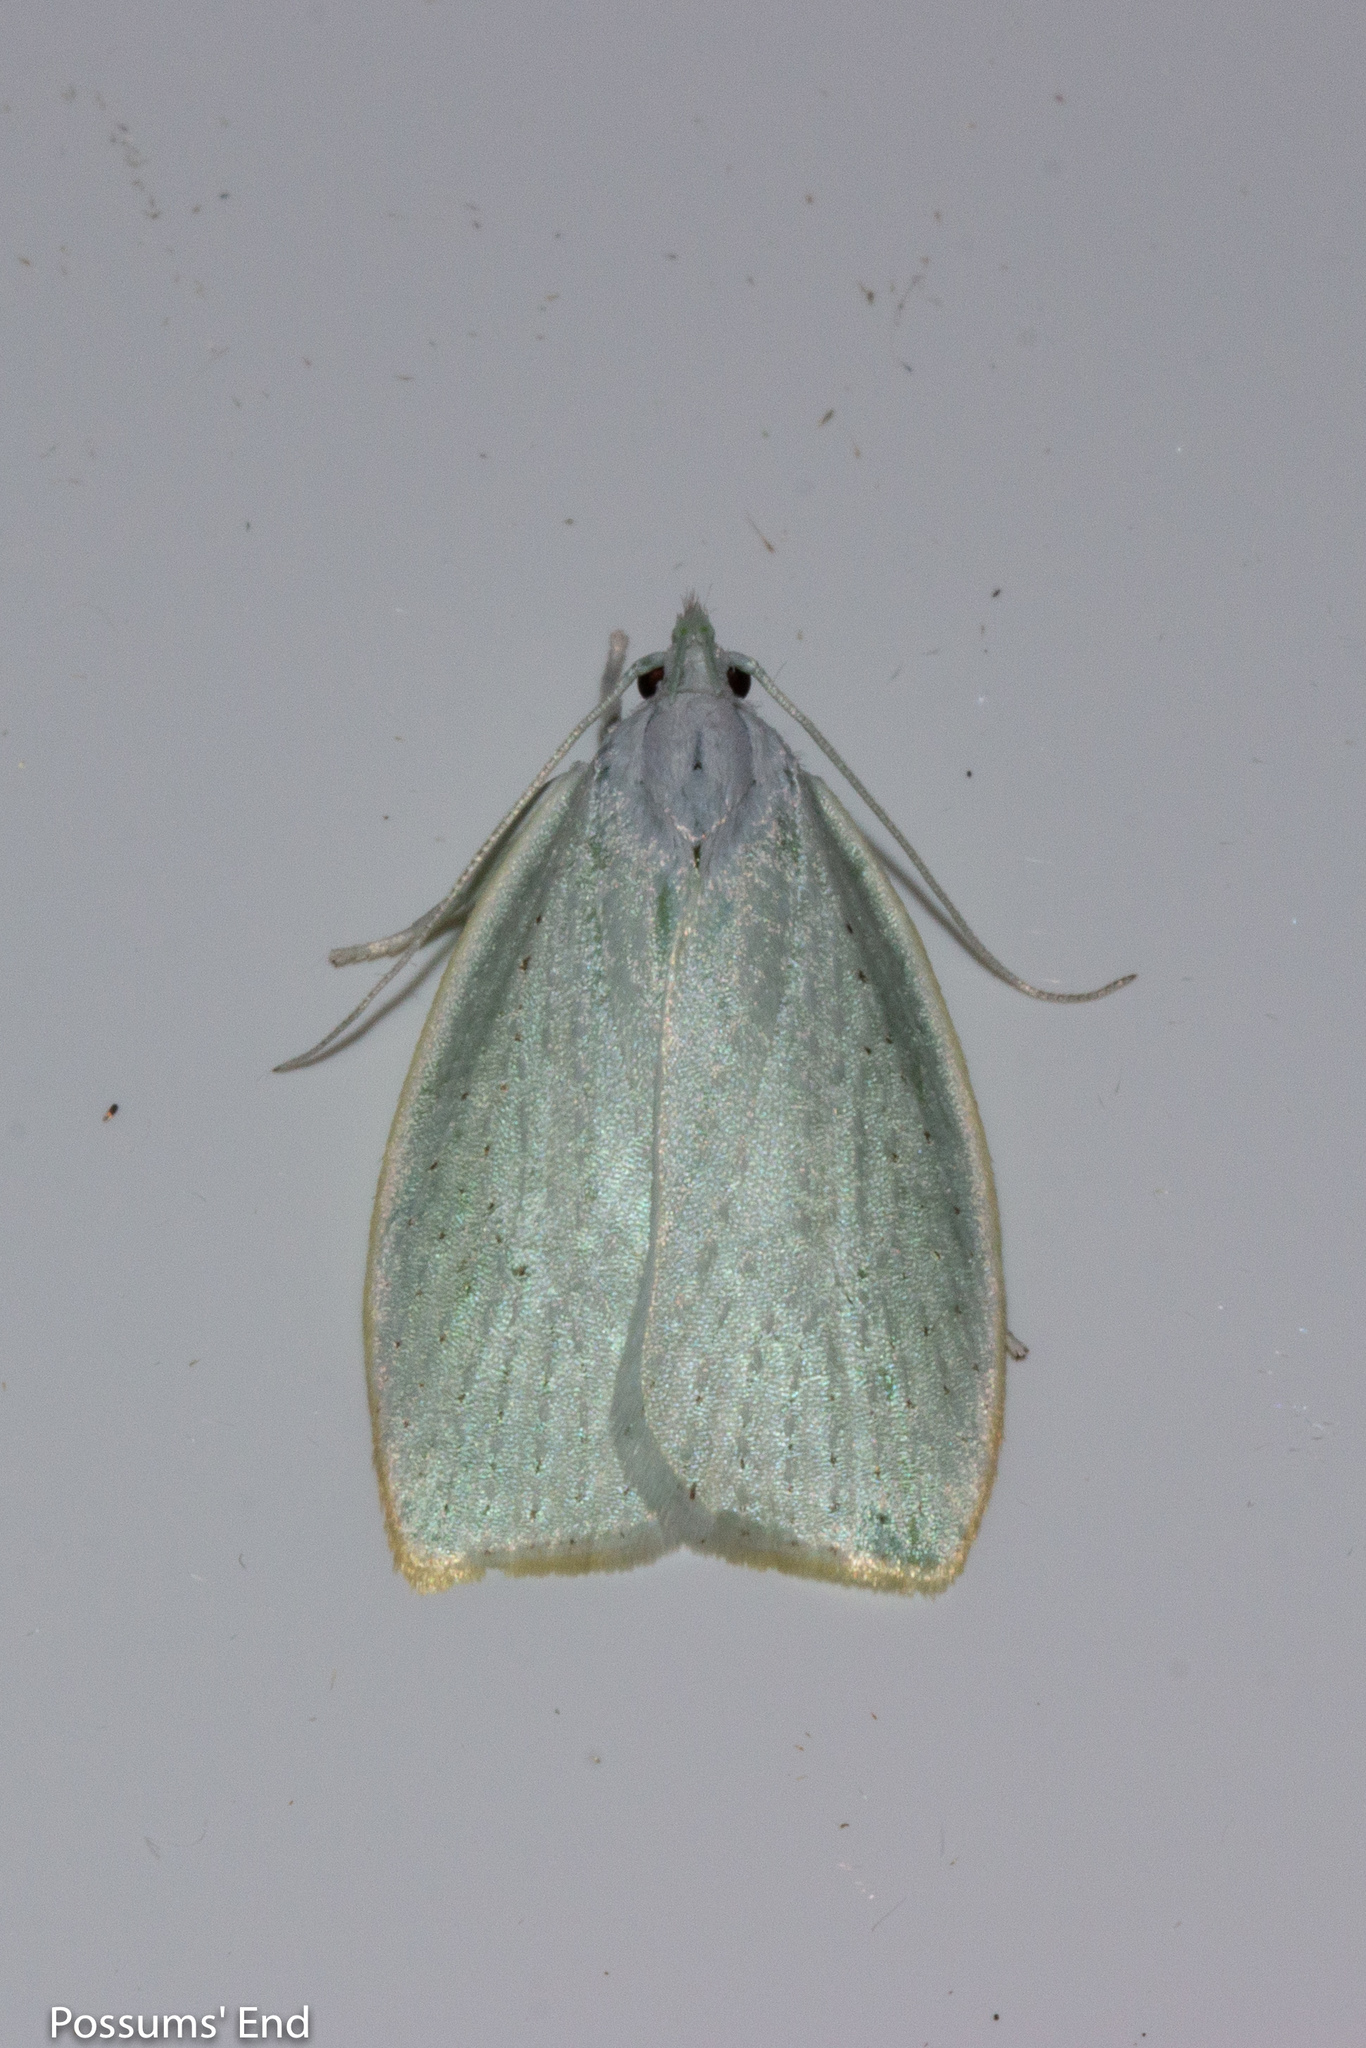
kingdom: Animalia
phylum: Arthropoda
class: Insecta
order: Lepidoptera
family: Oecophoridae
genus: Nymphostola
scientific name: Nymphostola galactina
